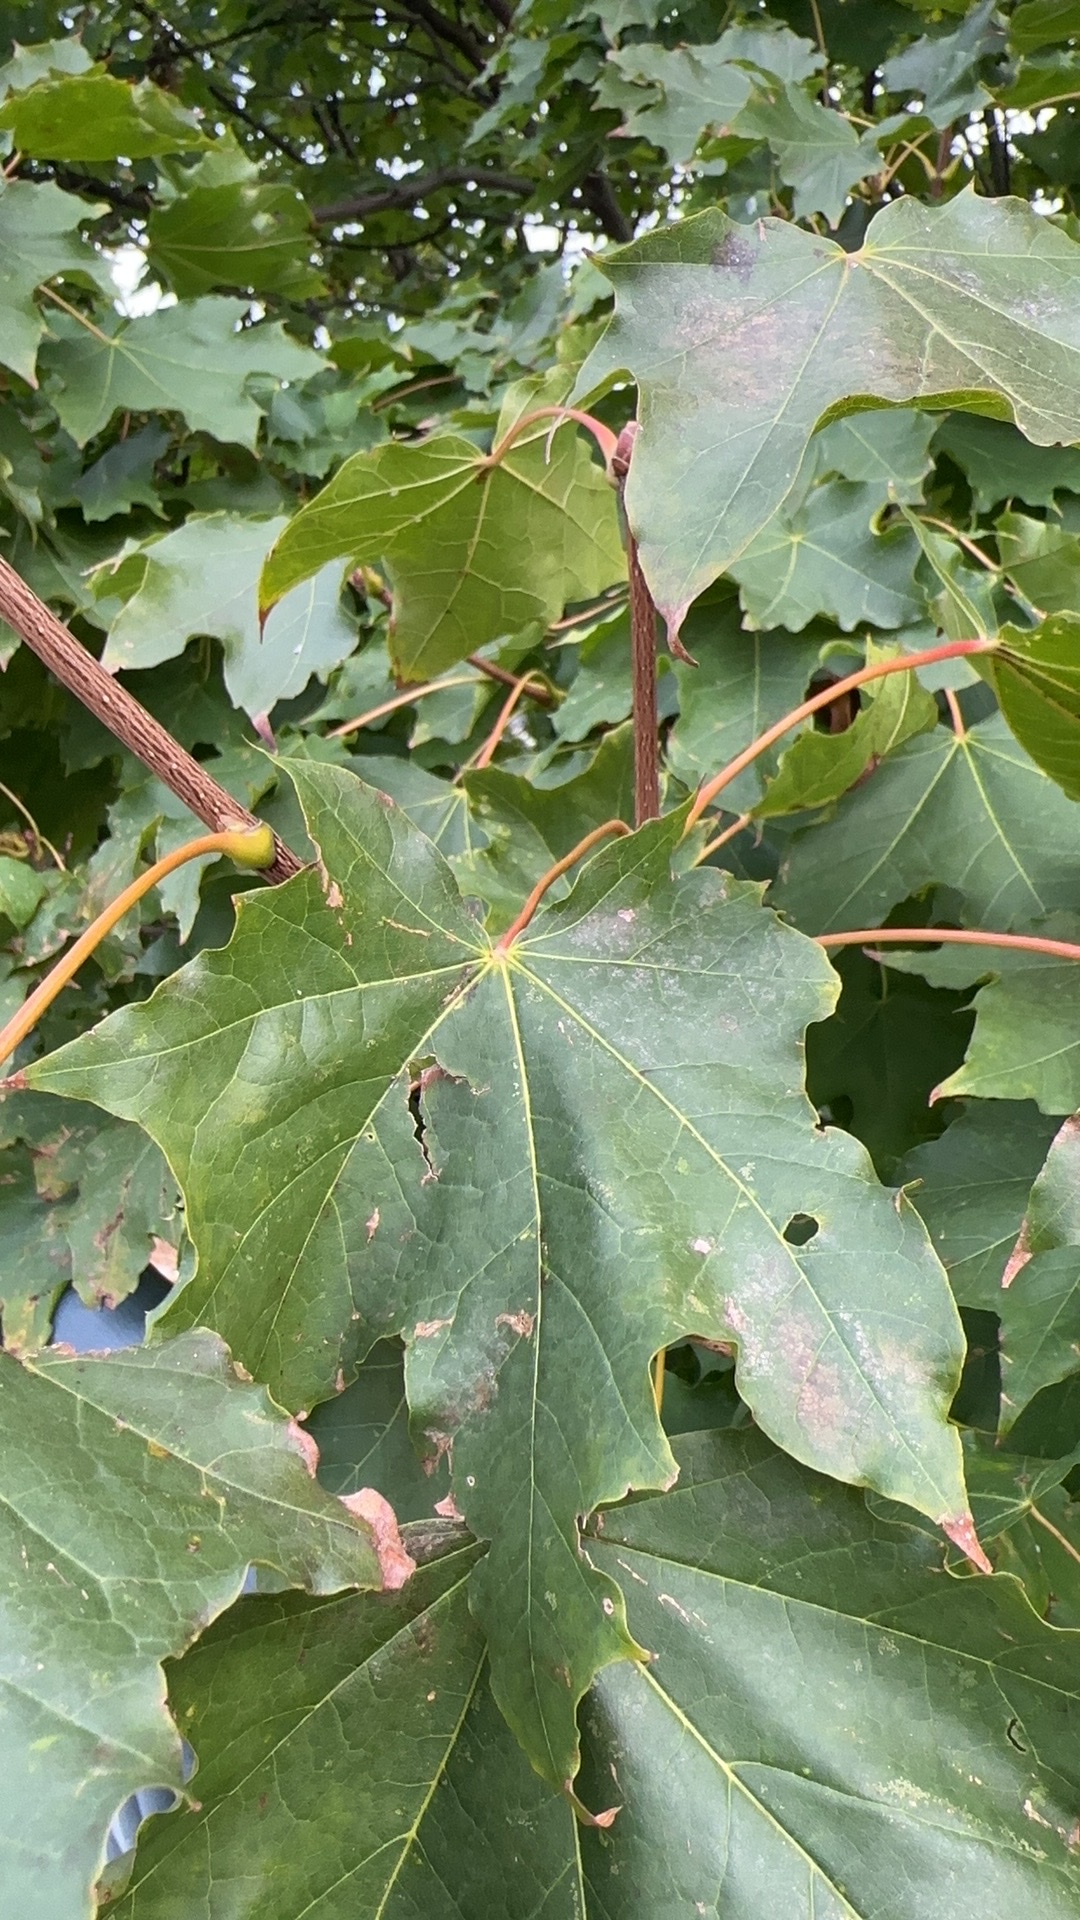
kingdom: Plantae
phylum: Tracheophyta
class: Magnoliopsida
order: Sapindales
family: Sapindaceae
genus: Acer
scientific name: Acer platanoides
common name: Norway maple
